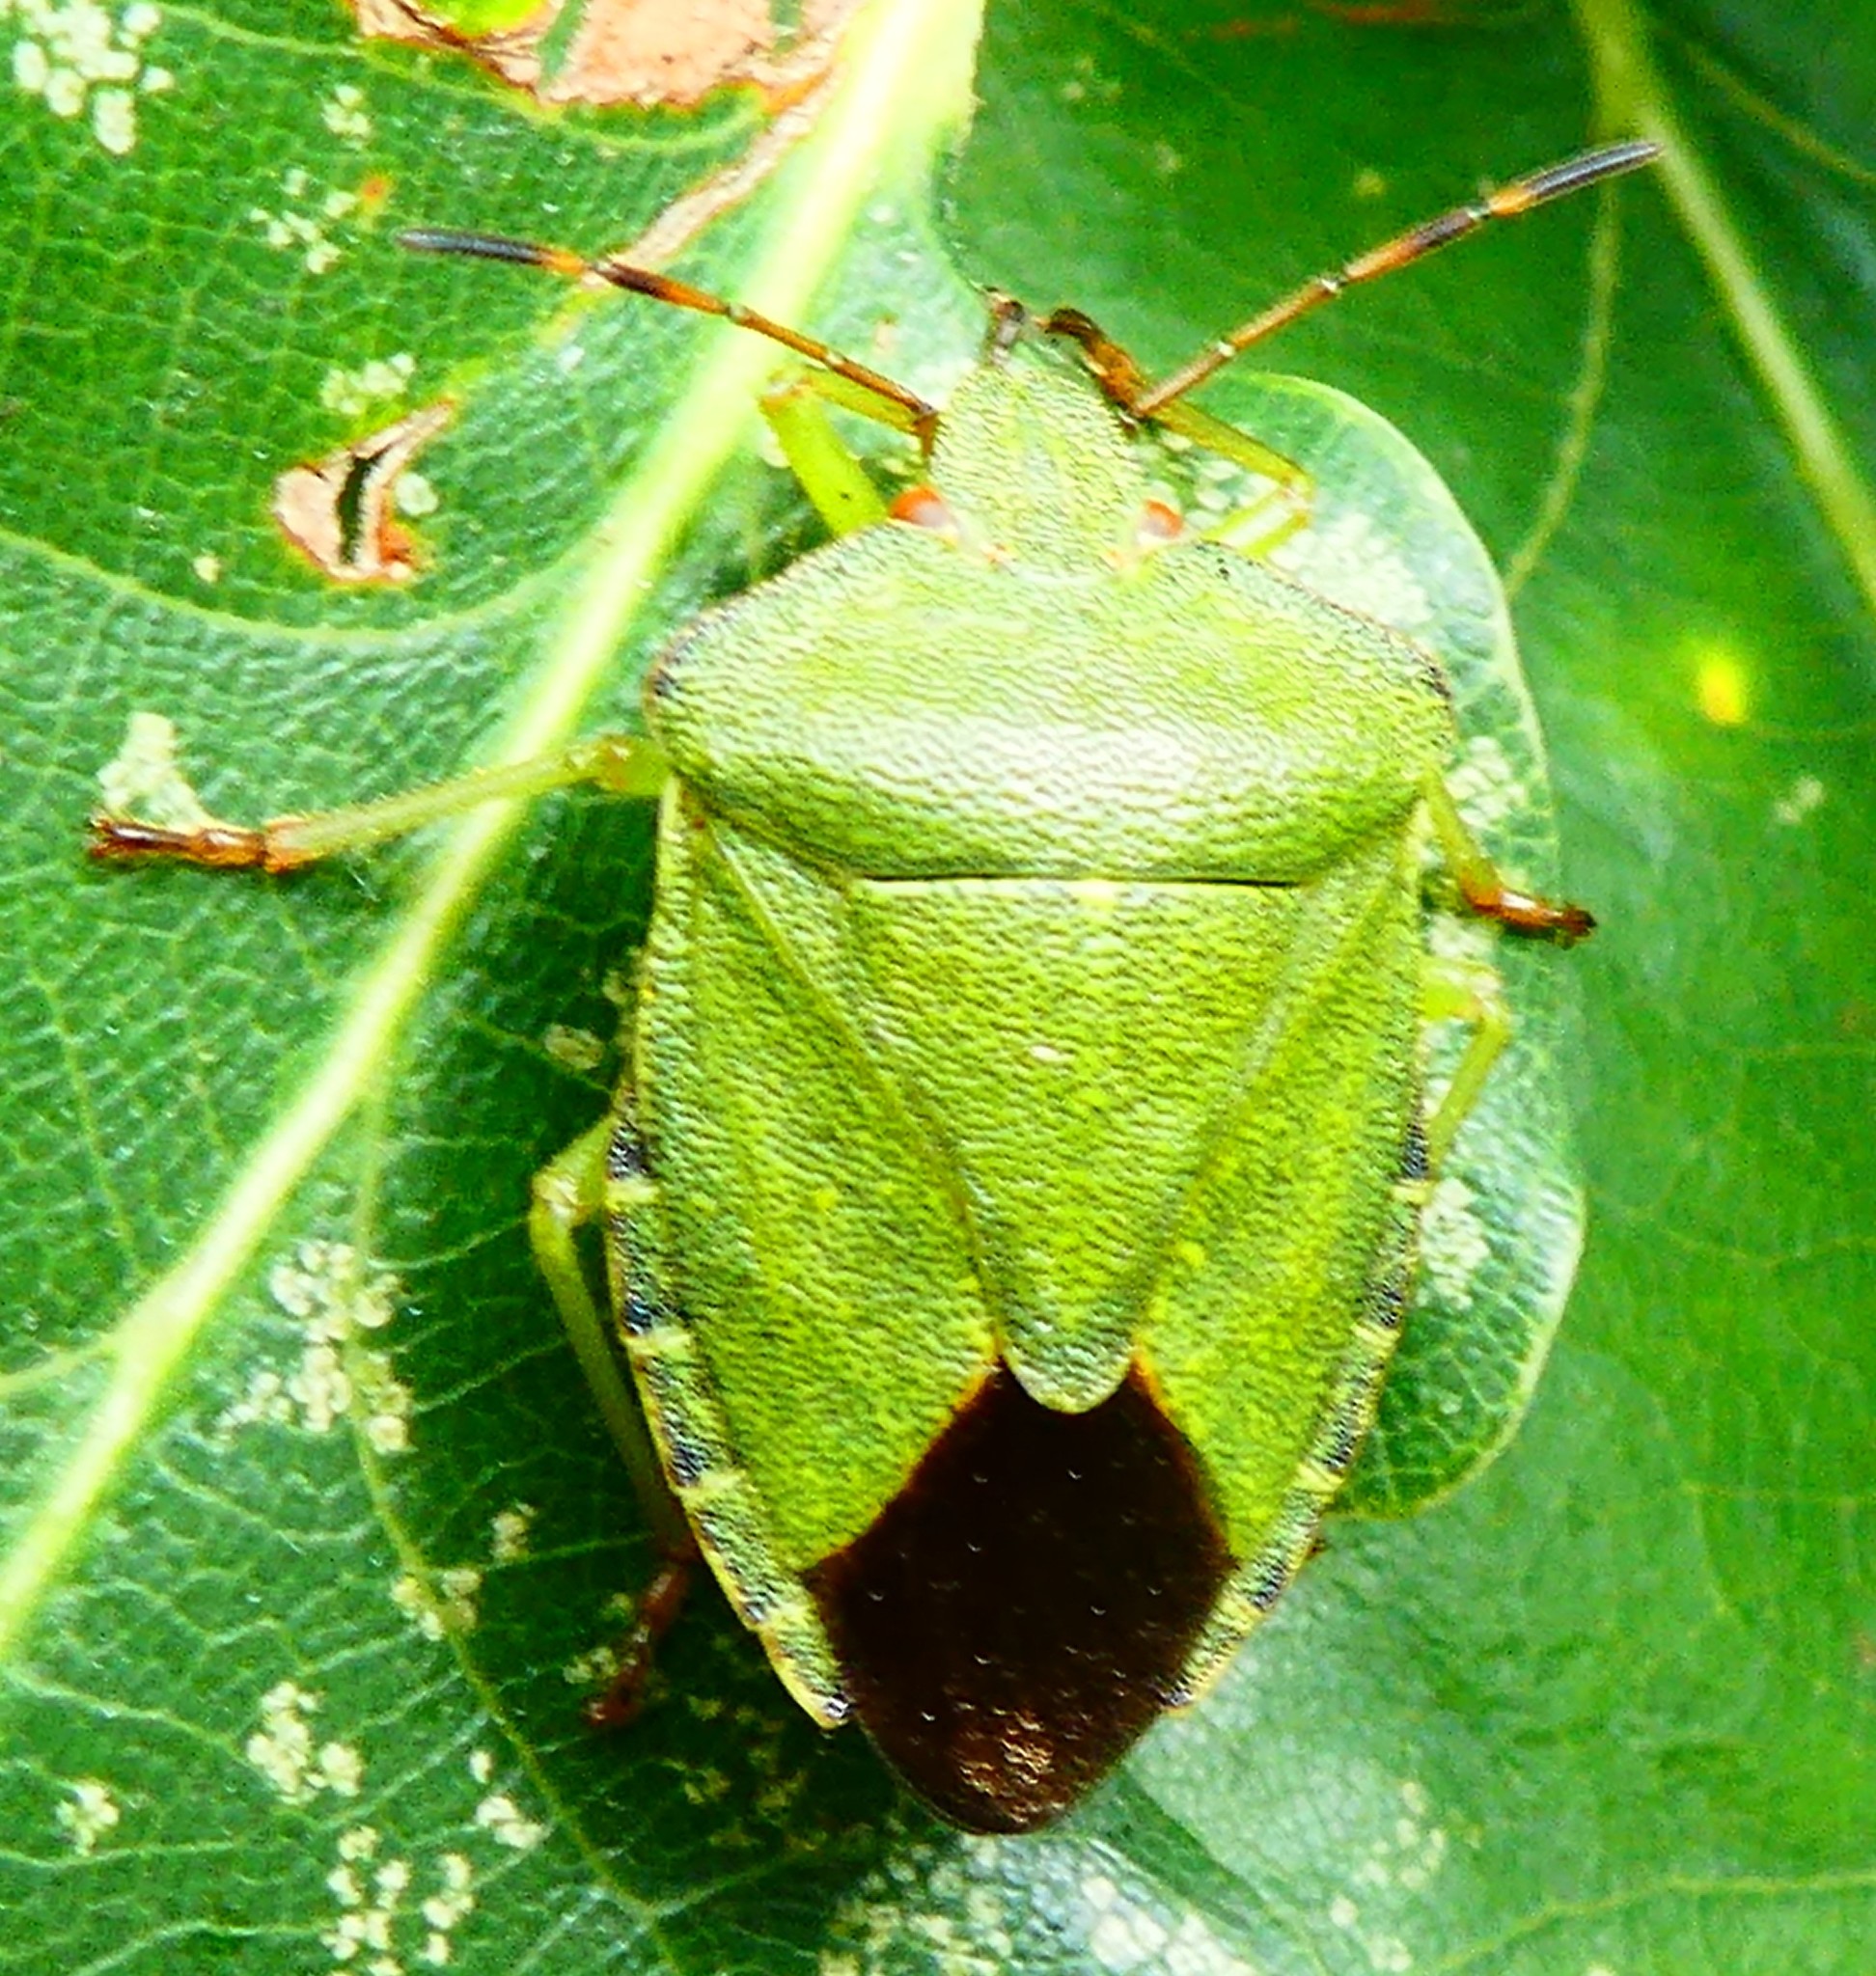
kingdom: Animalia
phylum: Arthropoda
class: Insecta
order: Hemiptera
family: Pentatomidae
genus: Palomena
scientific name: Palomena prasina
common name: Green shieldbug
